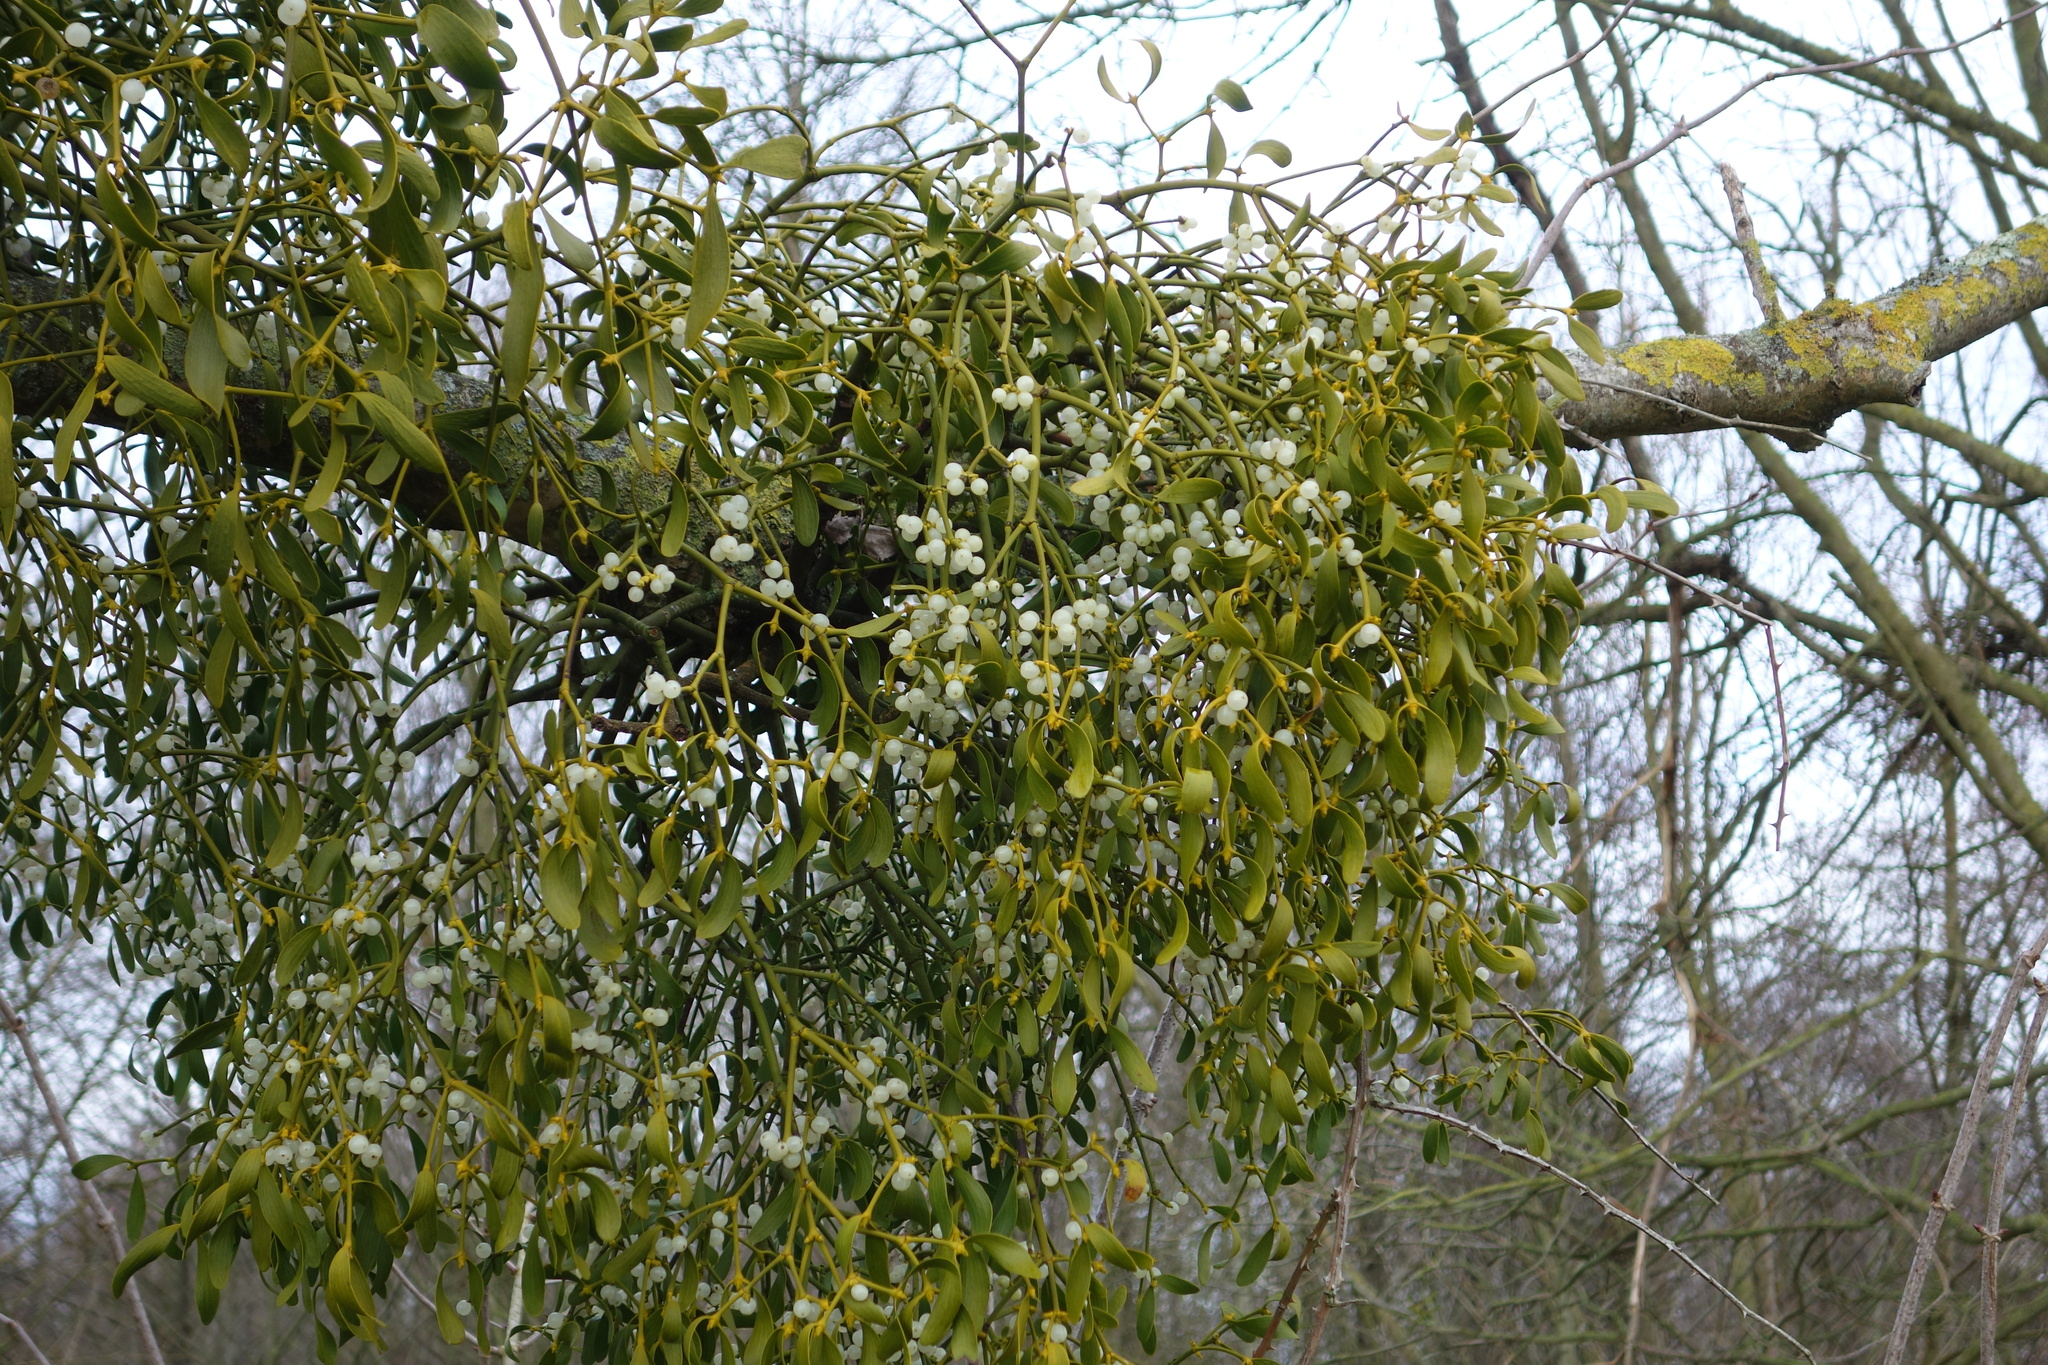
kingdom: Plantae
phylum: Tracheophyta
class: Magnoliopsida
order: Santalales
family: Viscaceae
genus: Viscum
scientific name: Viscum album
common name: Mistletoe
